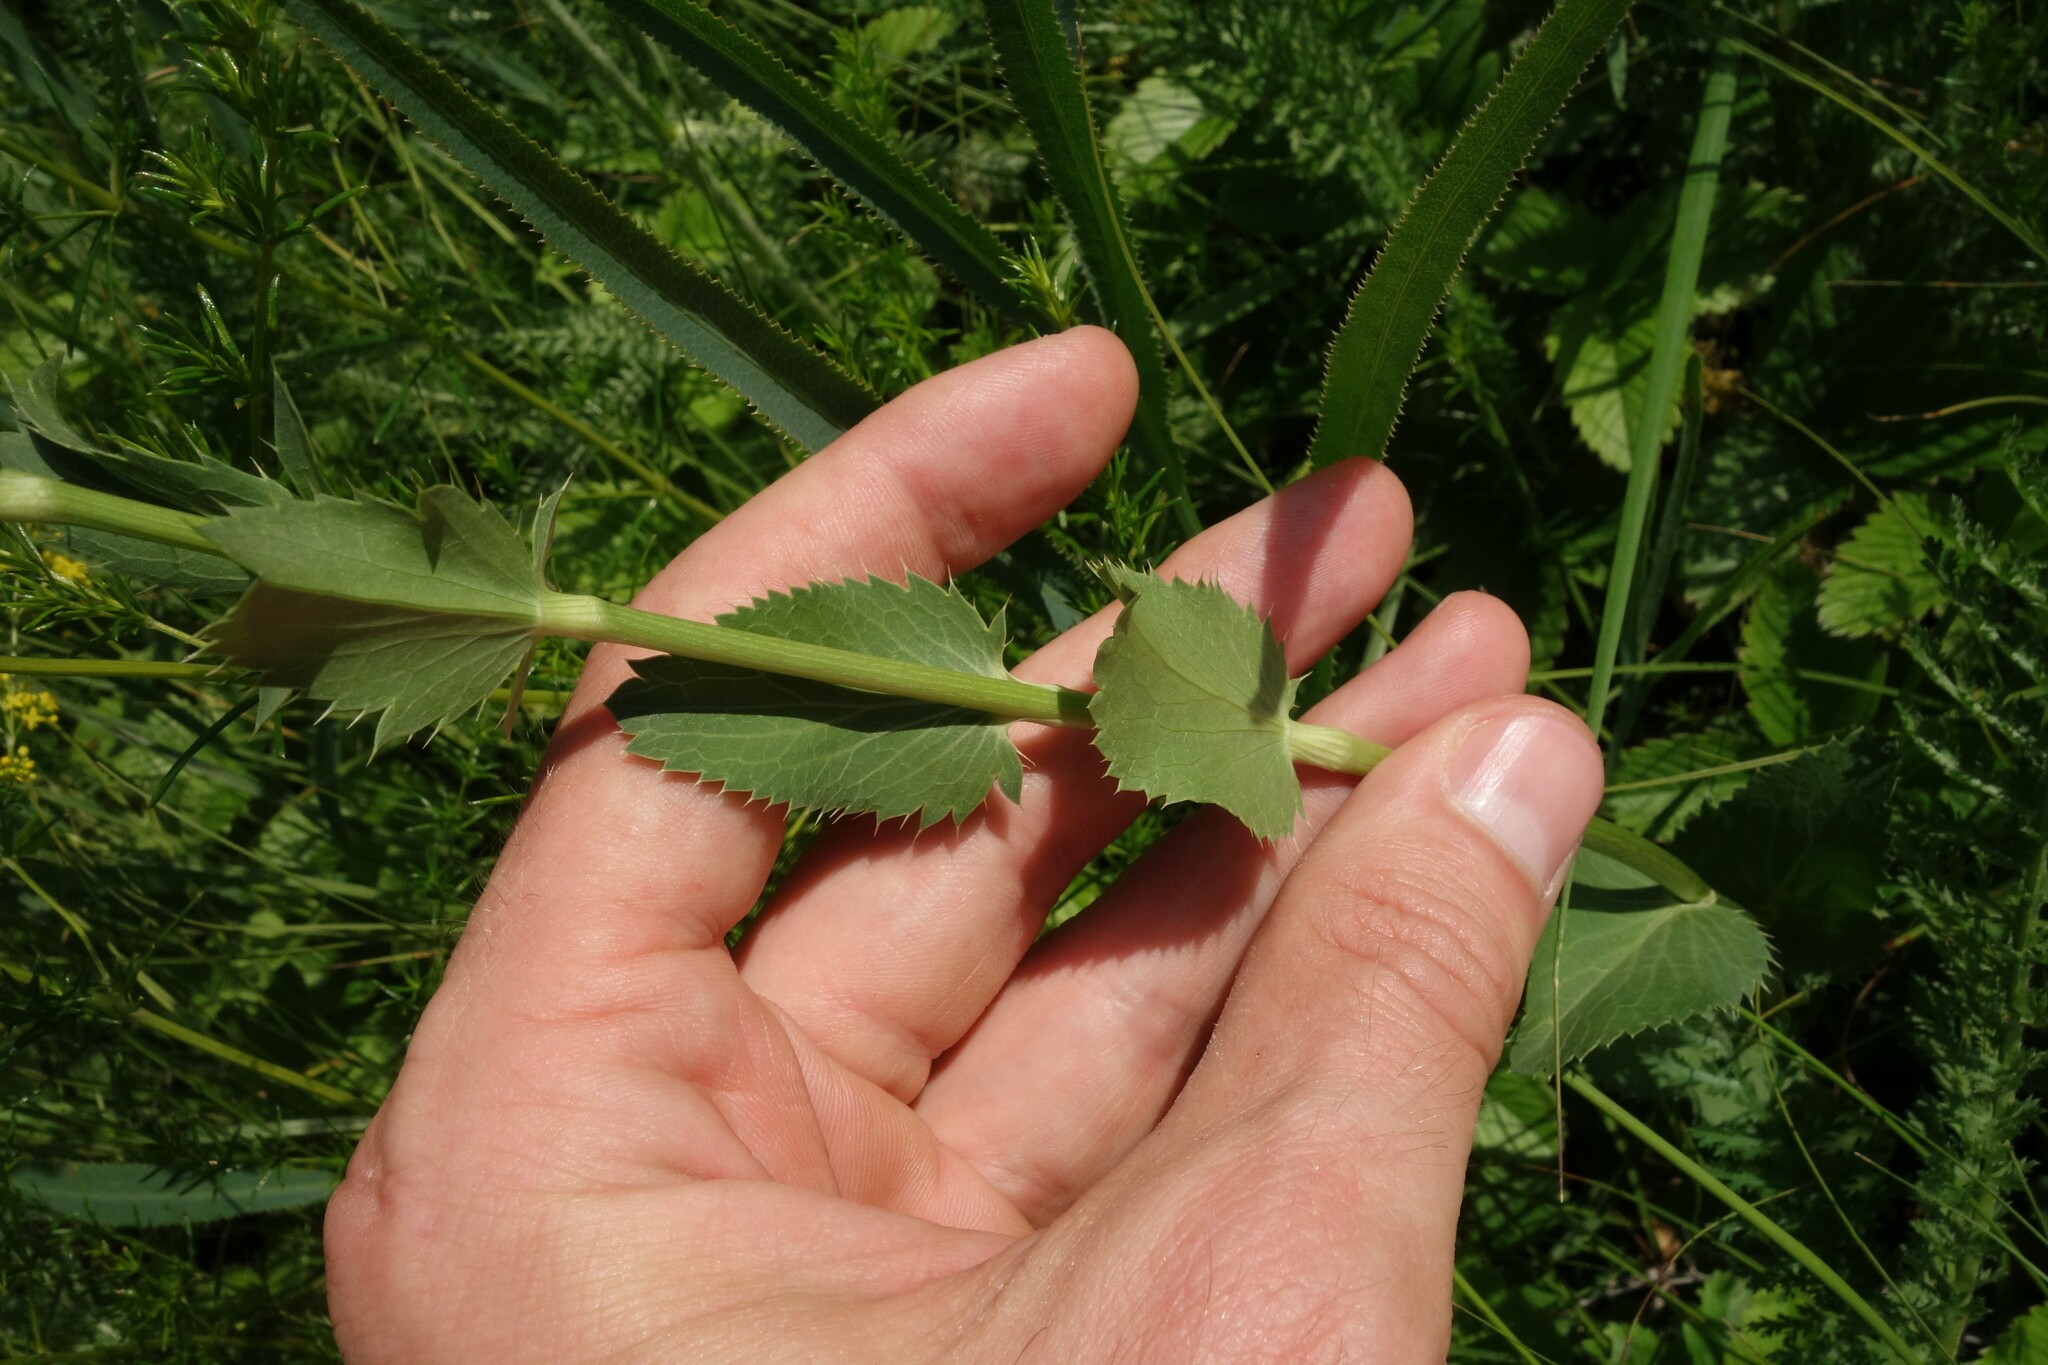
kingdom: Plantae
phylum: Tracheophyta
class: Magnoliopsida
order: Apiales
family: Apiaceae
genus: Eryngium
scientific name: Eryngium planum
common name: Blue eryngo
